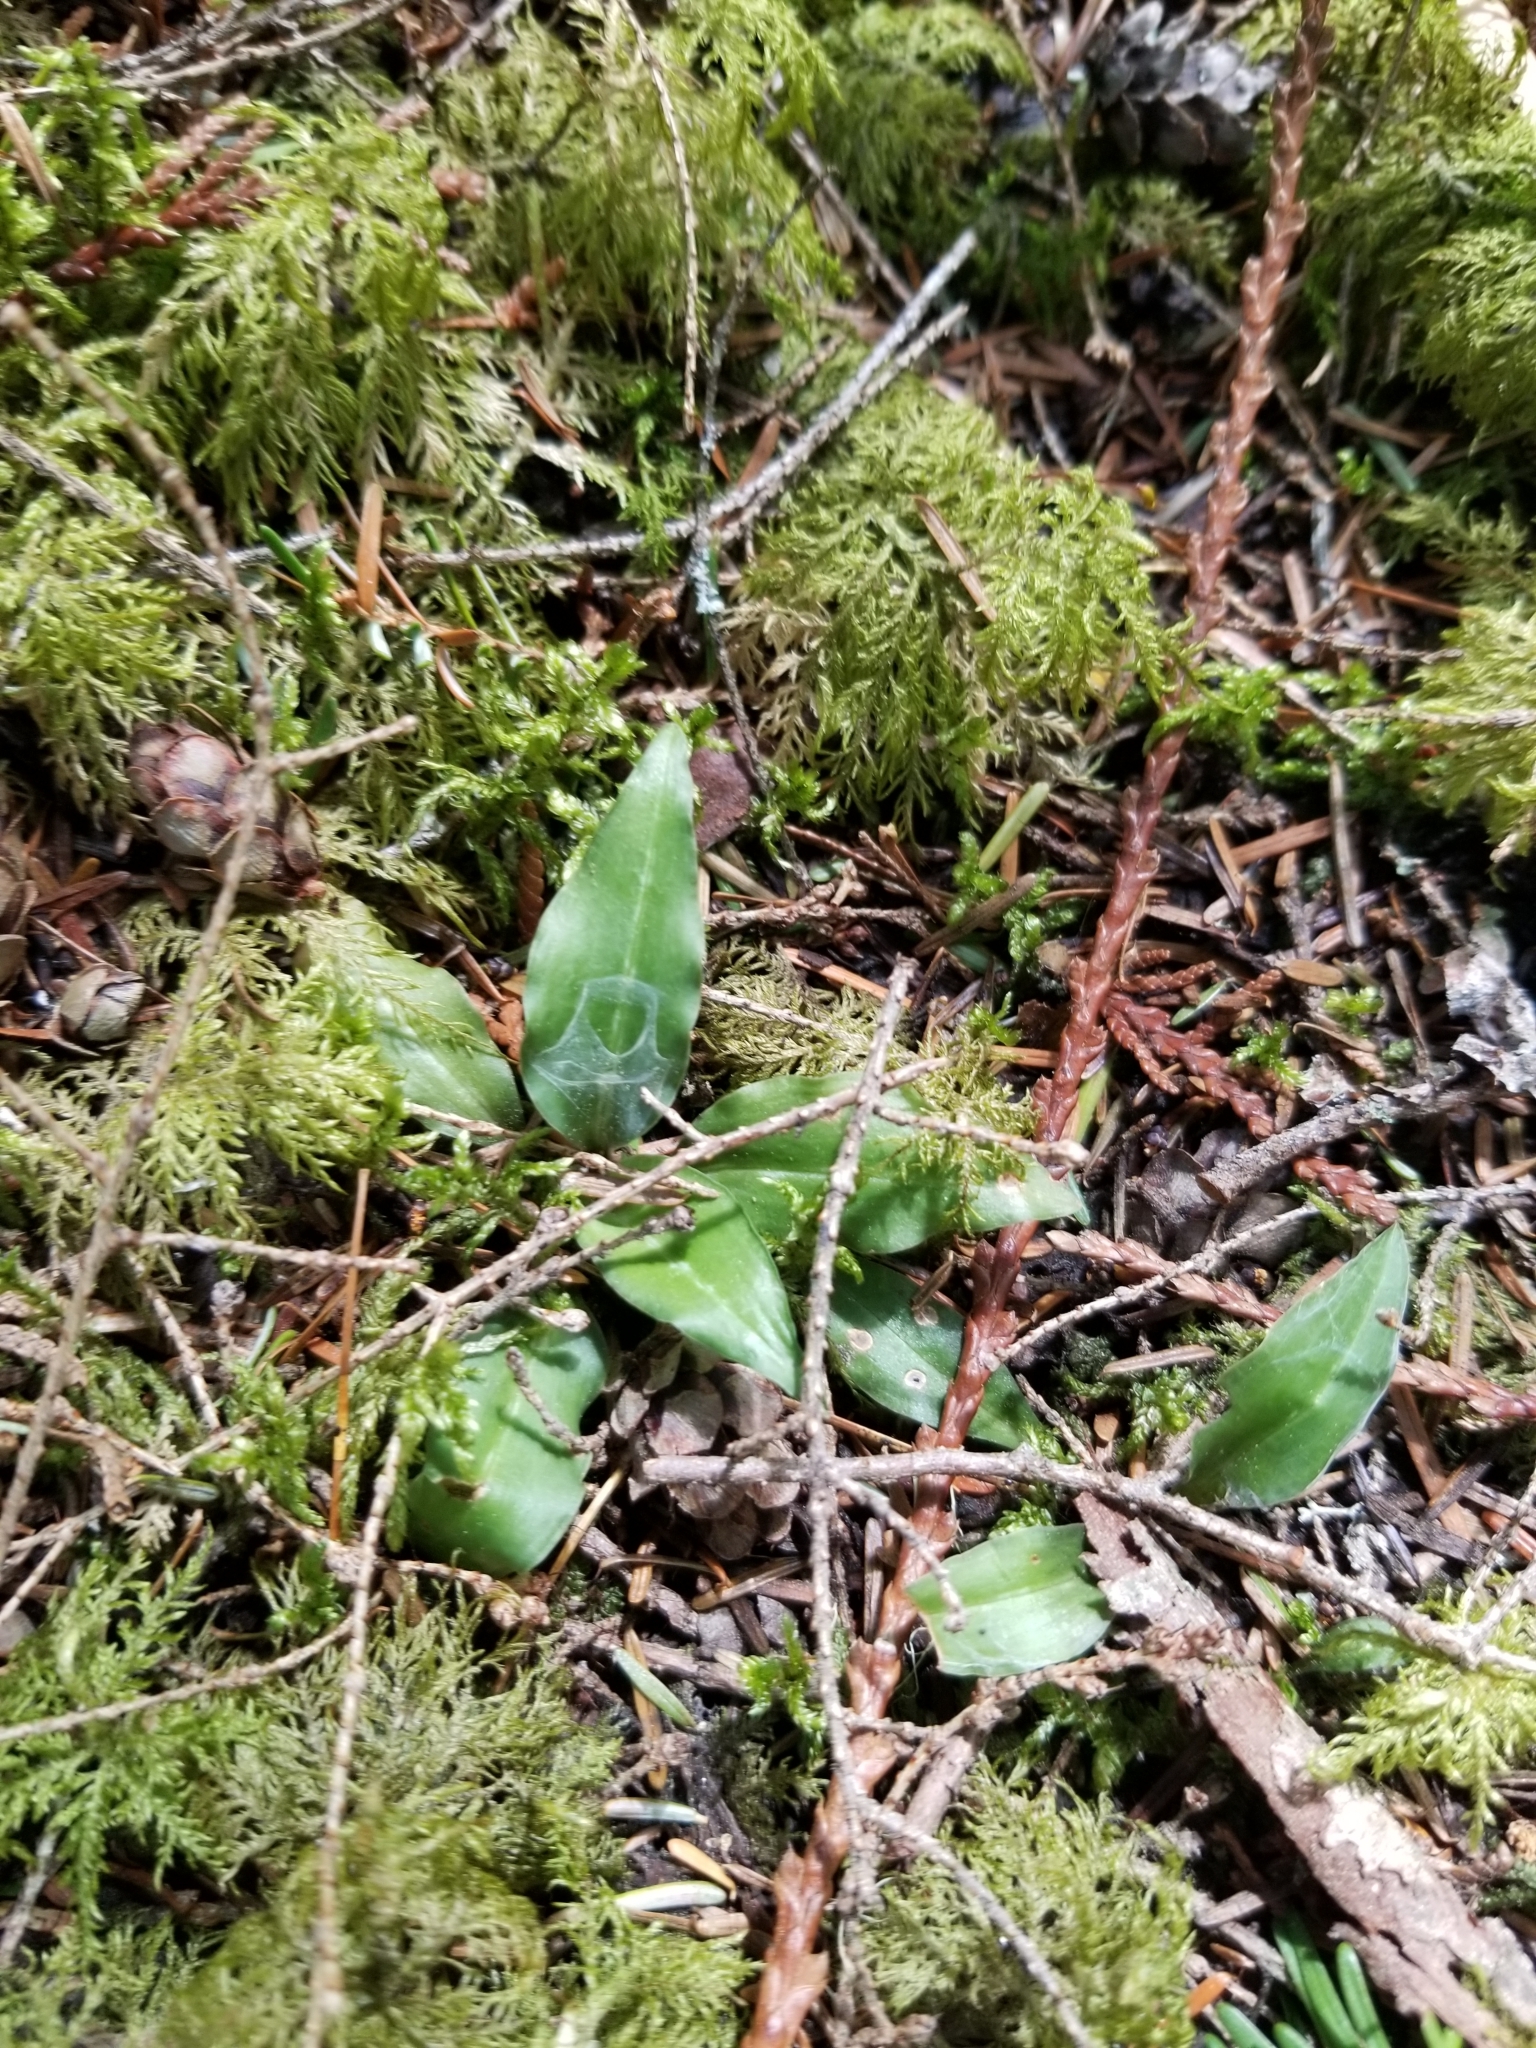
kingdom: Plantae
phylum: Tracheophyta
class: Liliopsida
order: Asparagales
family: Orchidaceae
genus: Goodyera
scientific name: Goodyera oblongifolia
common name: Giant rattlesnake-plantain
